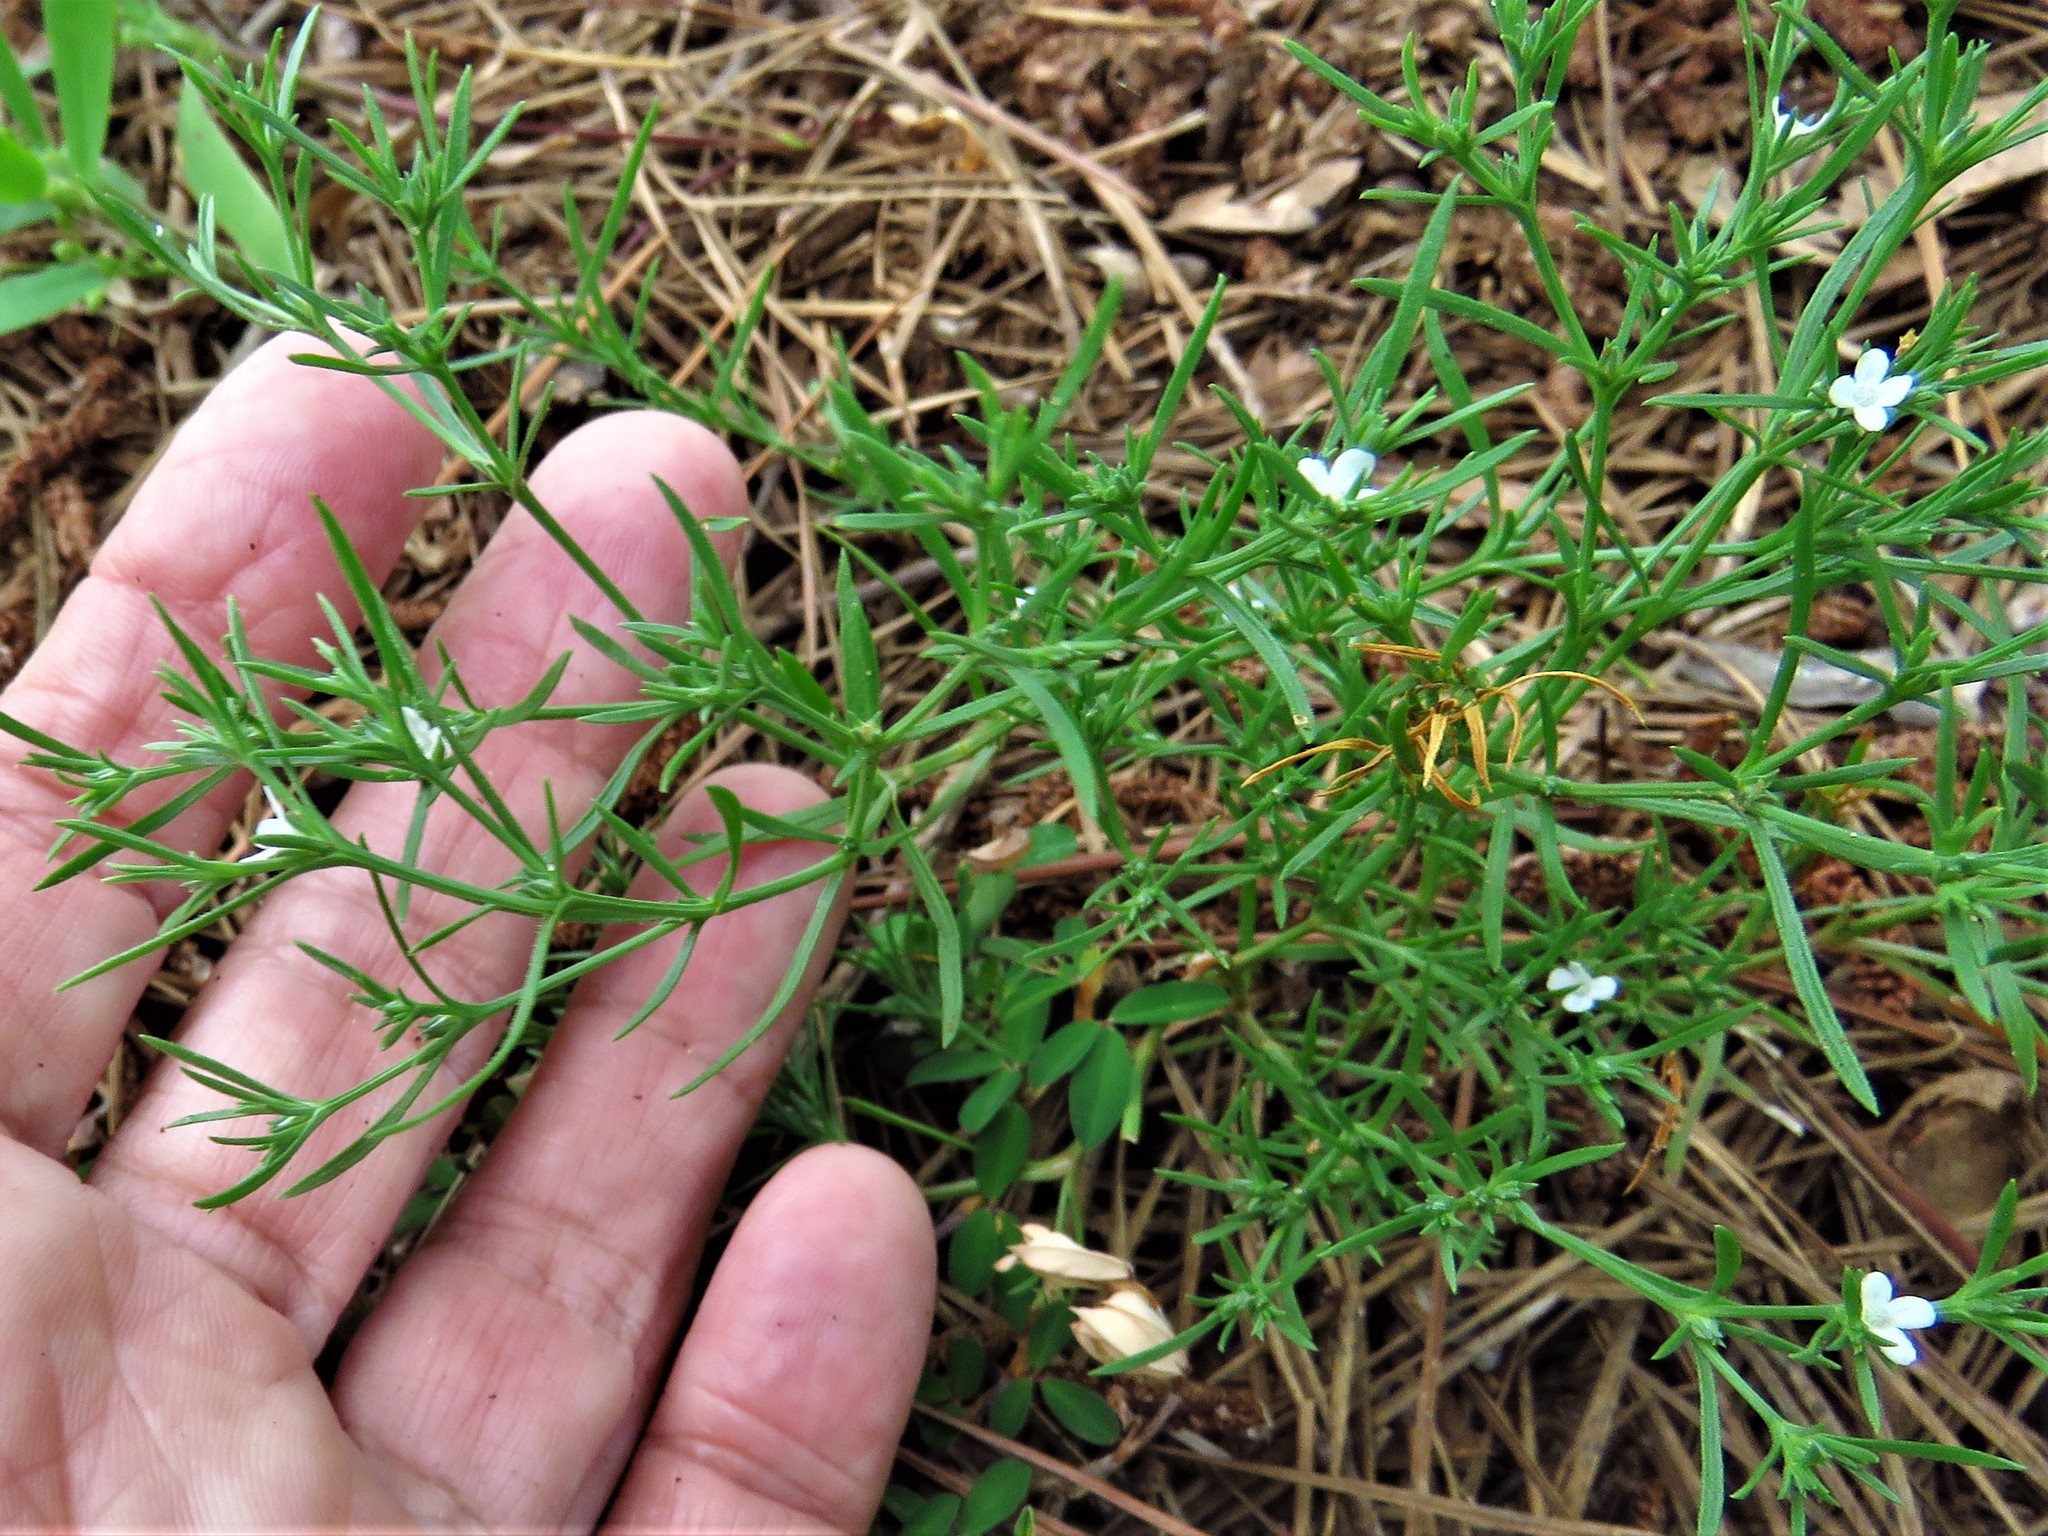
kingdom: Plantae
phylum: Tracheophyta
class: Magnoliopsida
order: Lamiales
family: Tetrachondraceae
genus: Polypremum
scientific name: Polypremum procumbens
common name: Juniper-leaf
